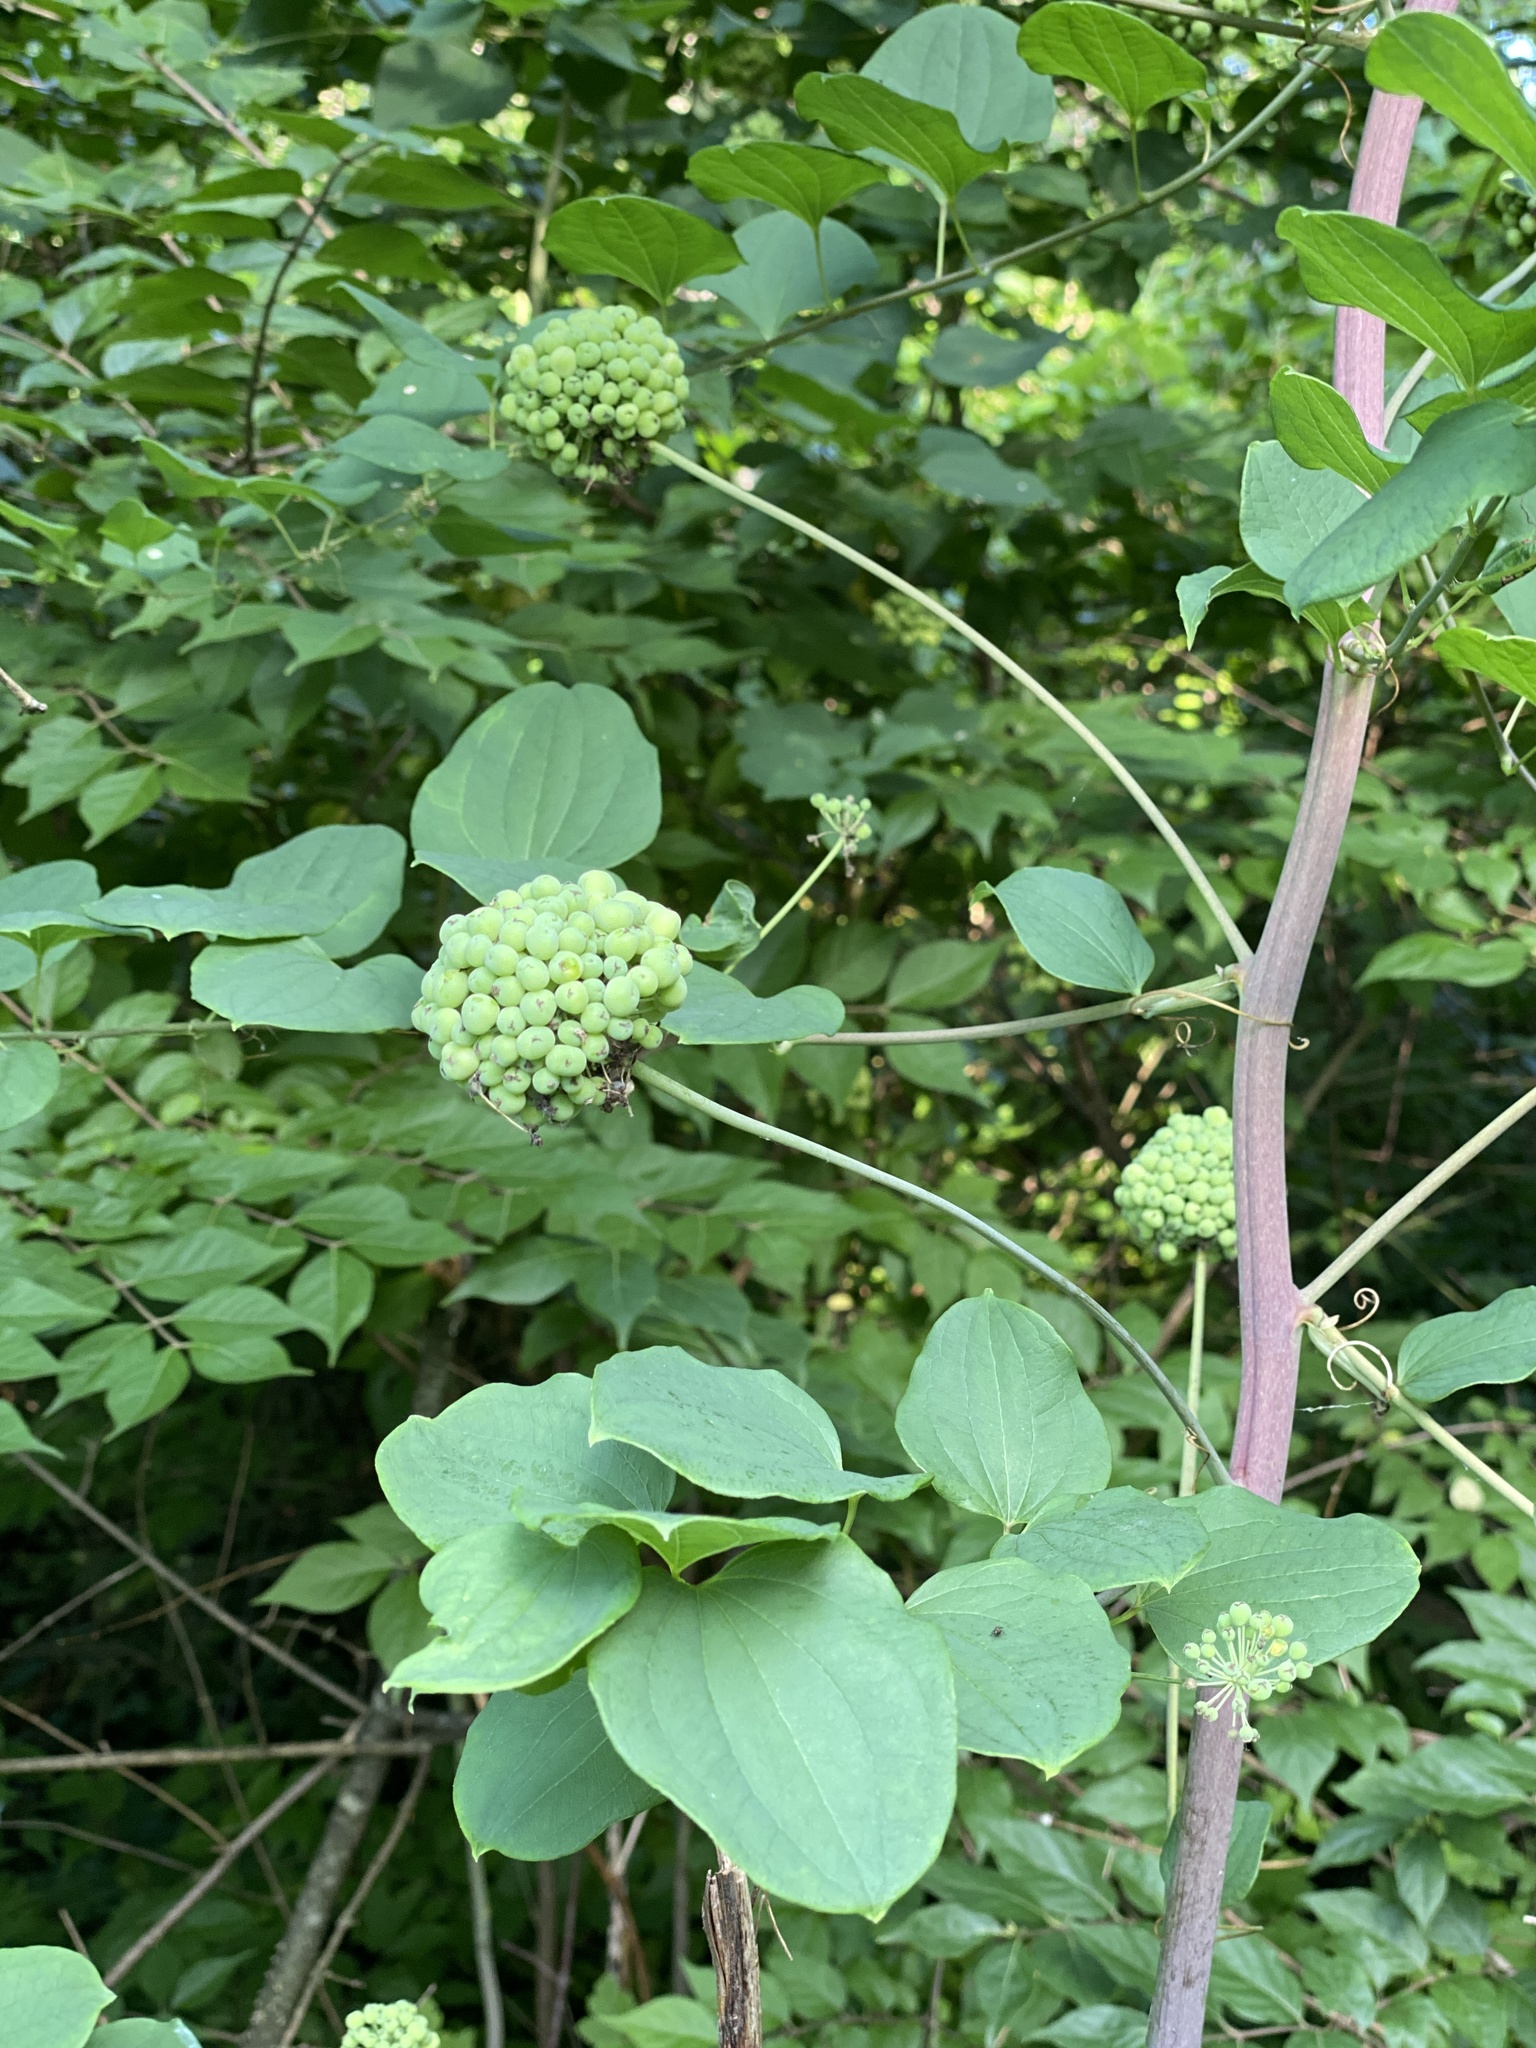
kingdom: Plantae
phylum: Tracheophyta
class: Liliopsida
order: Liliales
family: Smilacaceae
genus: Smilax
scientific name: Smilax lasioneura
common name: Blue ridge carrionflower
